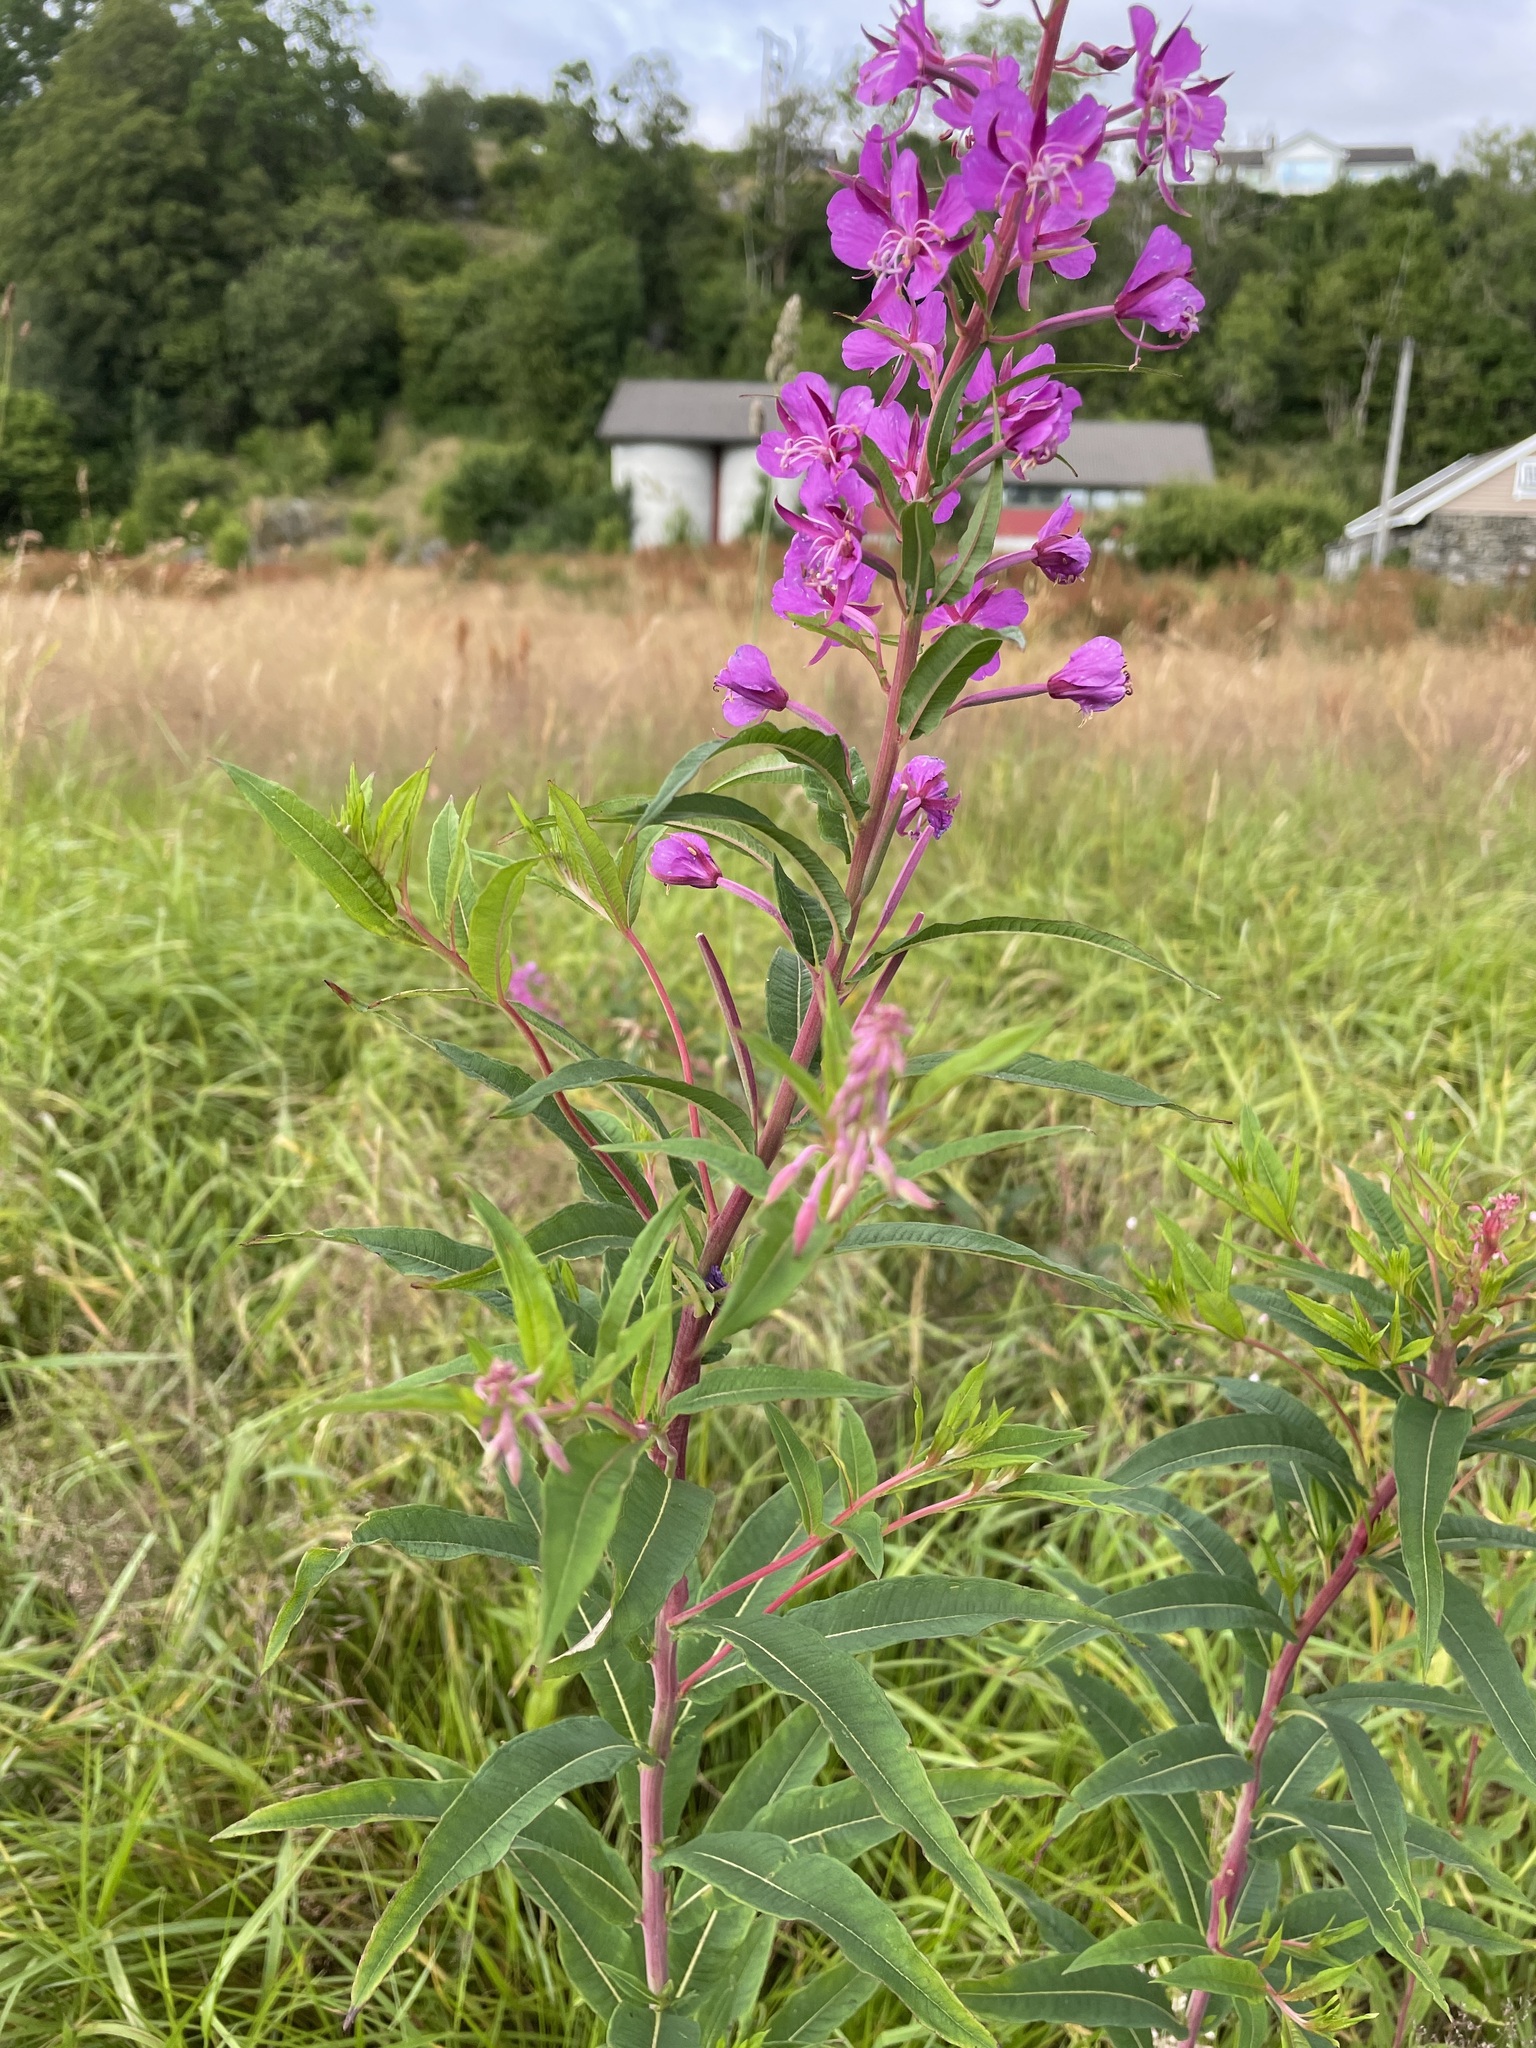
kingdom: Plantae
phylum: Tracheophyta
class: Magnoliopsida
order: Myrtales
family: Onagraceae
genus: Chamaenerion
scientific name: Chamaenerion angustifolium
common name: Fireweed
